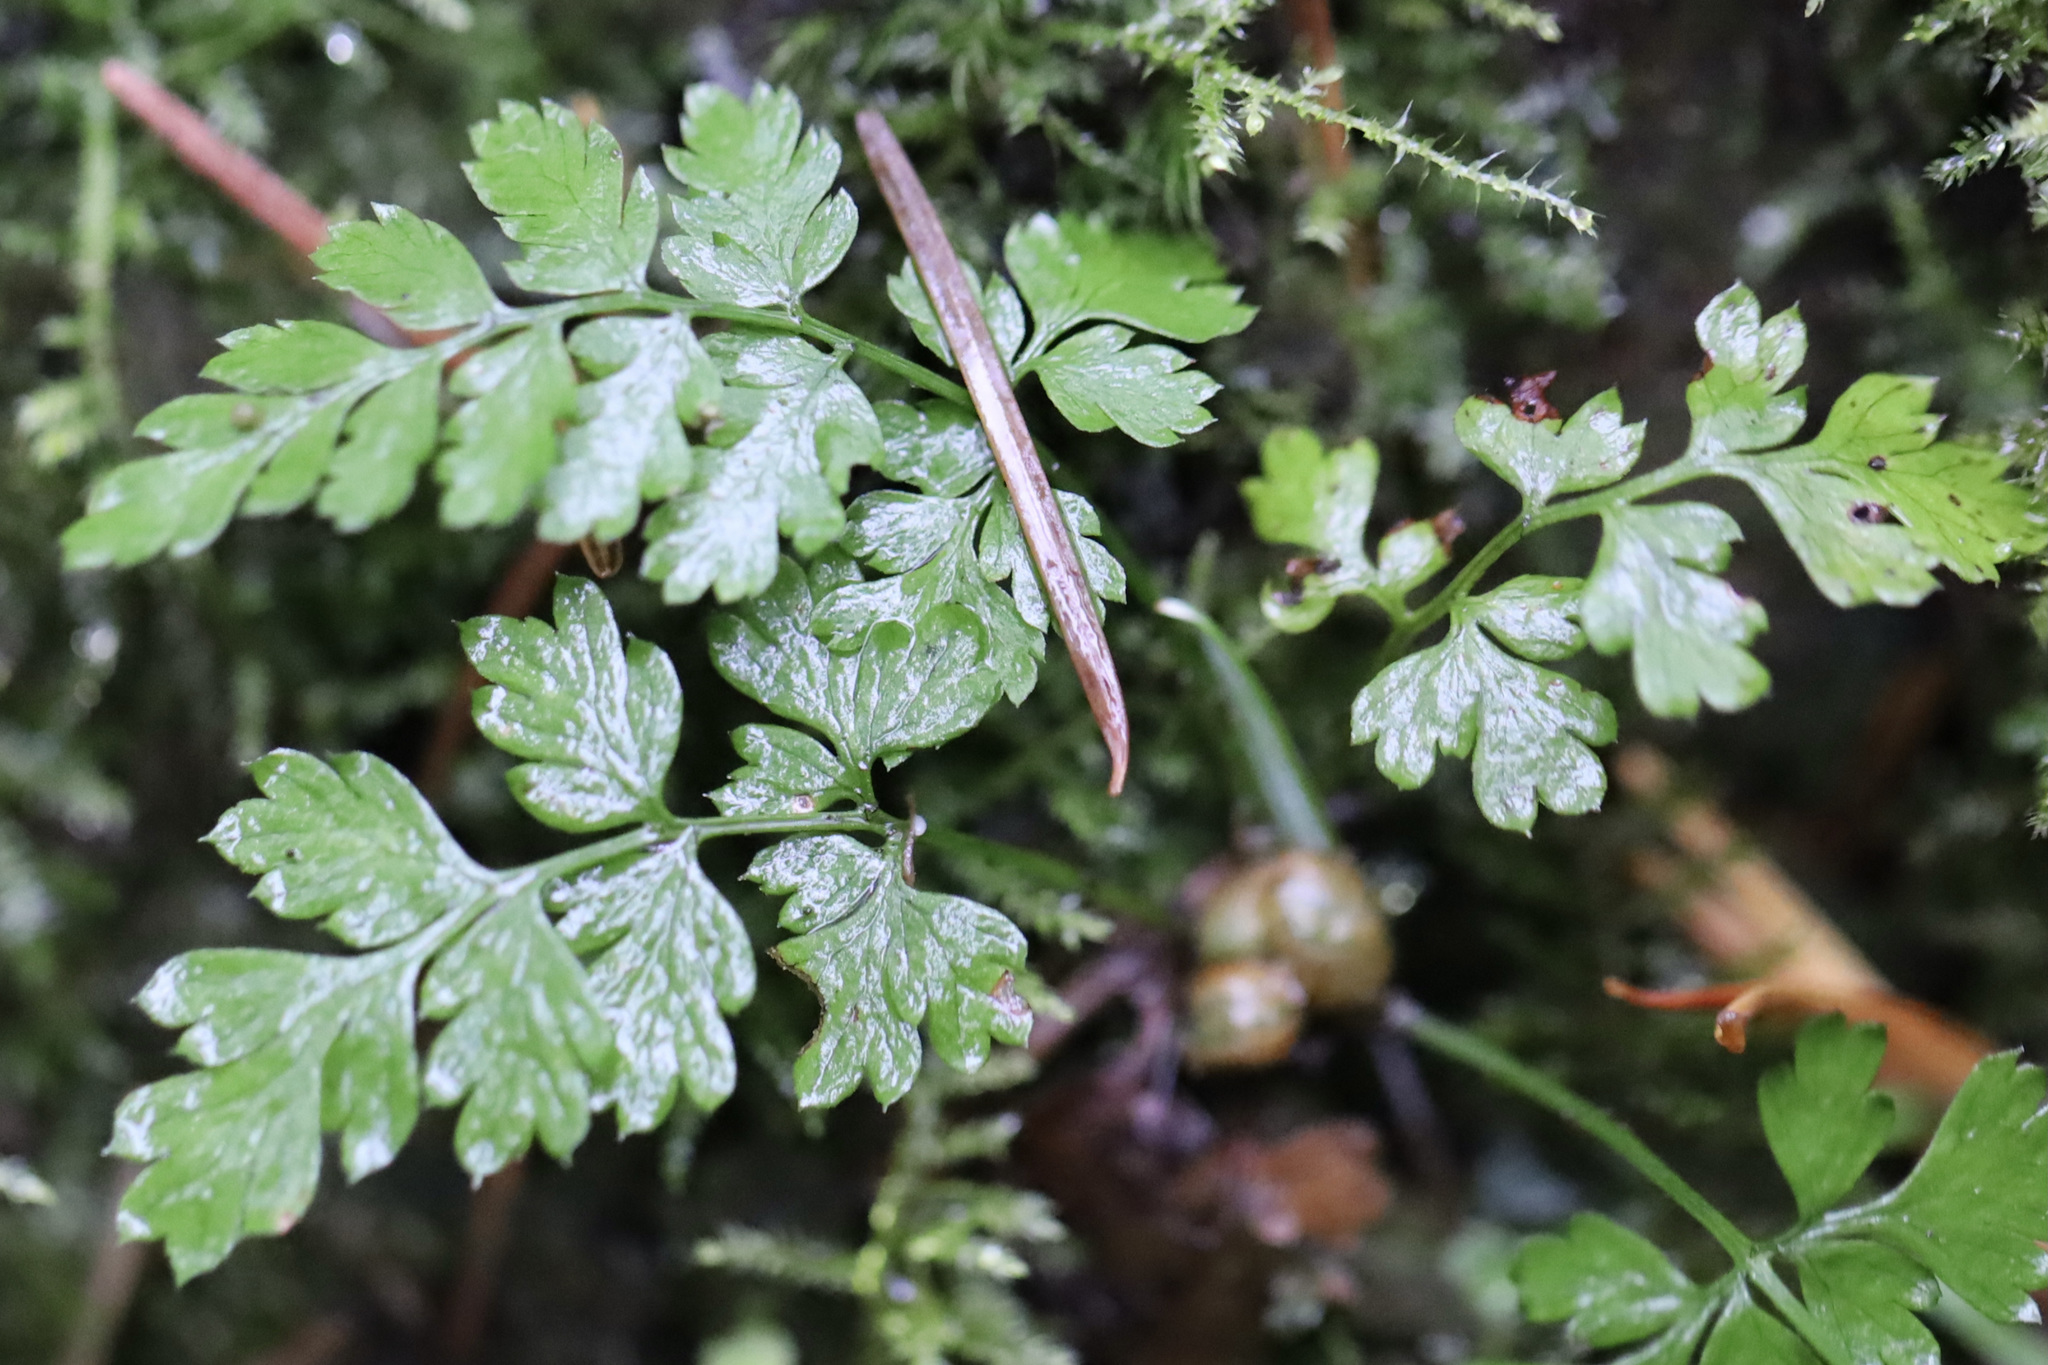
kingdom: Plantae
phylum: Tracheophyta
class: Polypodiopsida
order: Polypodiales
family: Cystopteridaceae
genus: Cystopteris
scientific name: Cystopteris fragilis
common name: Brittle bladder fern
